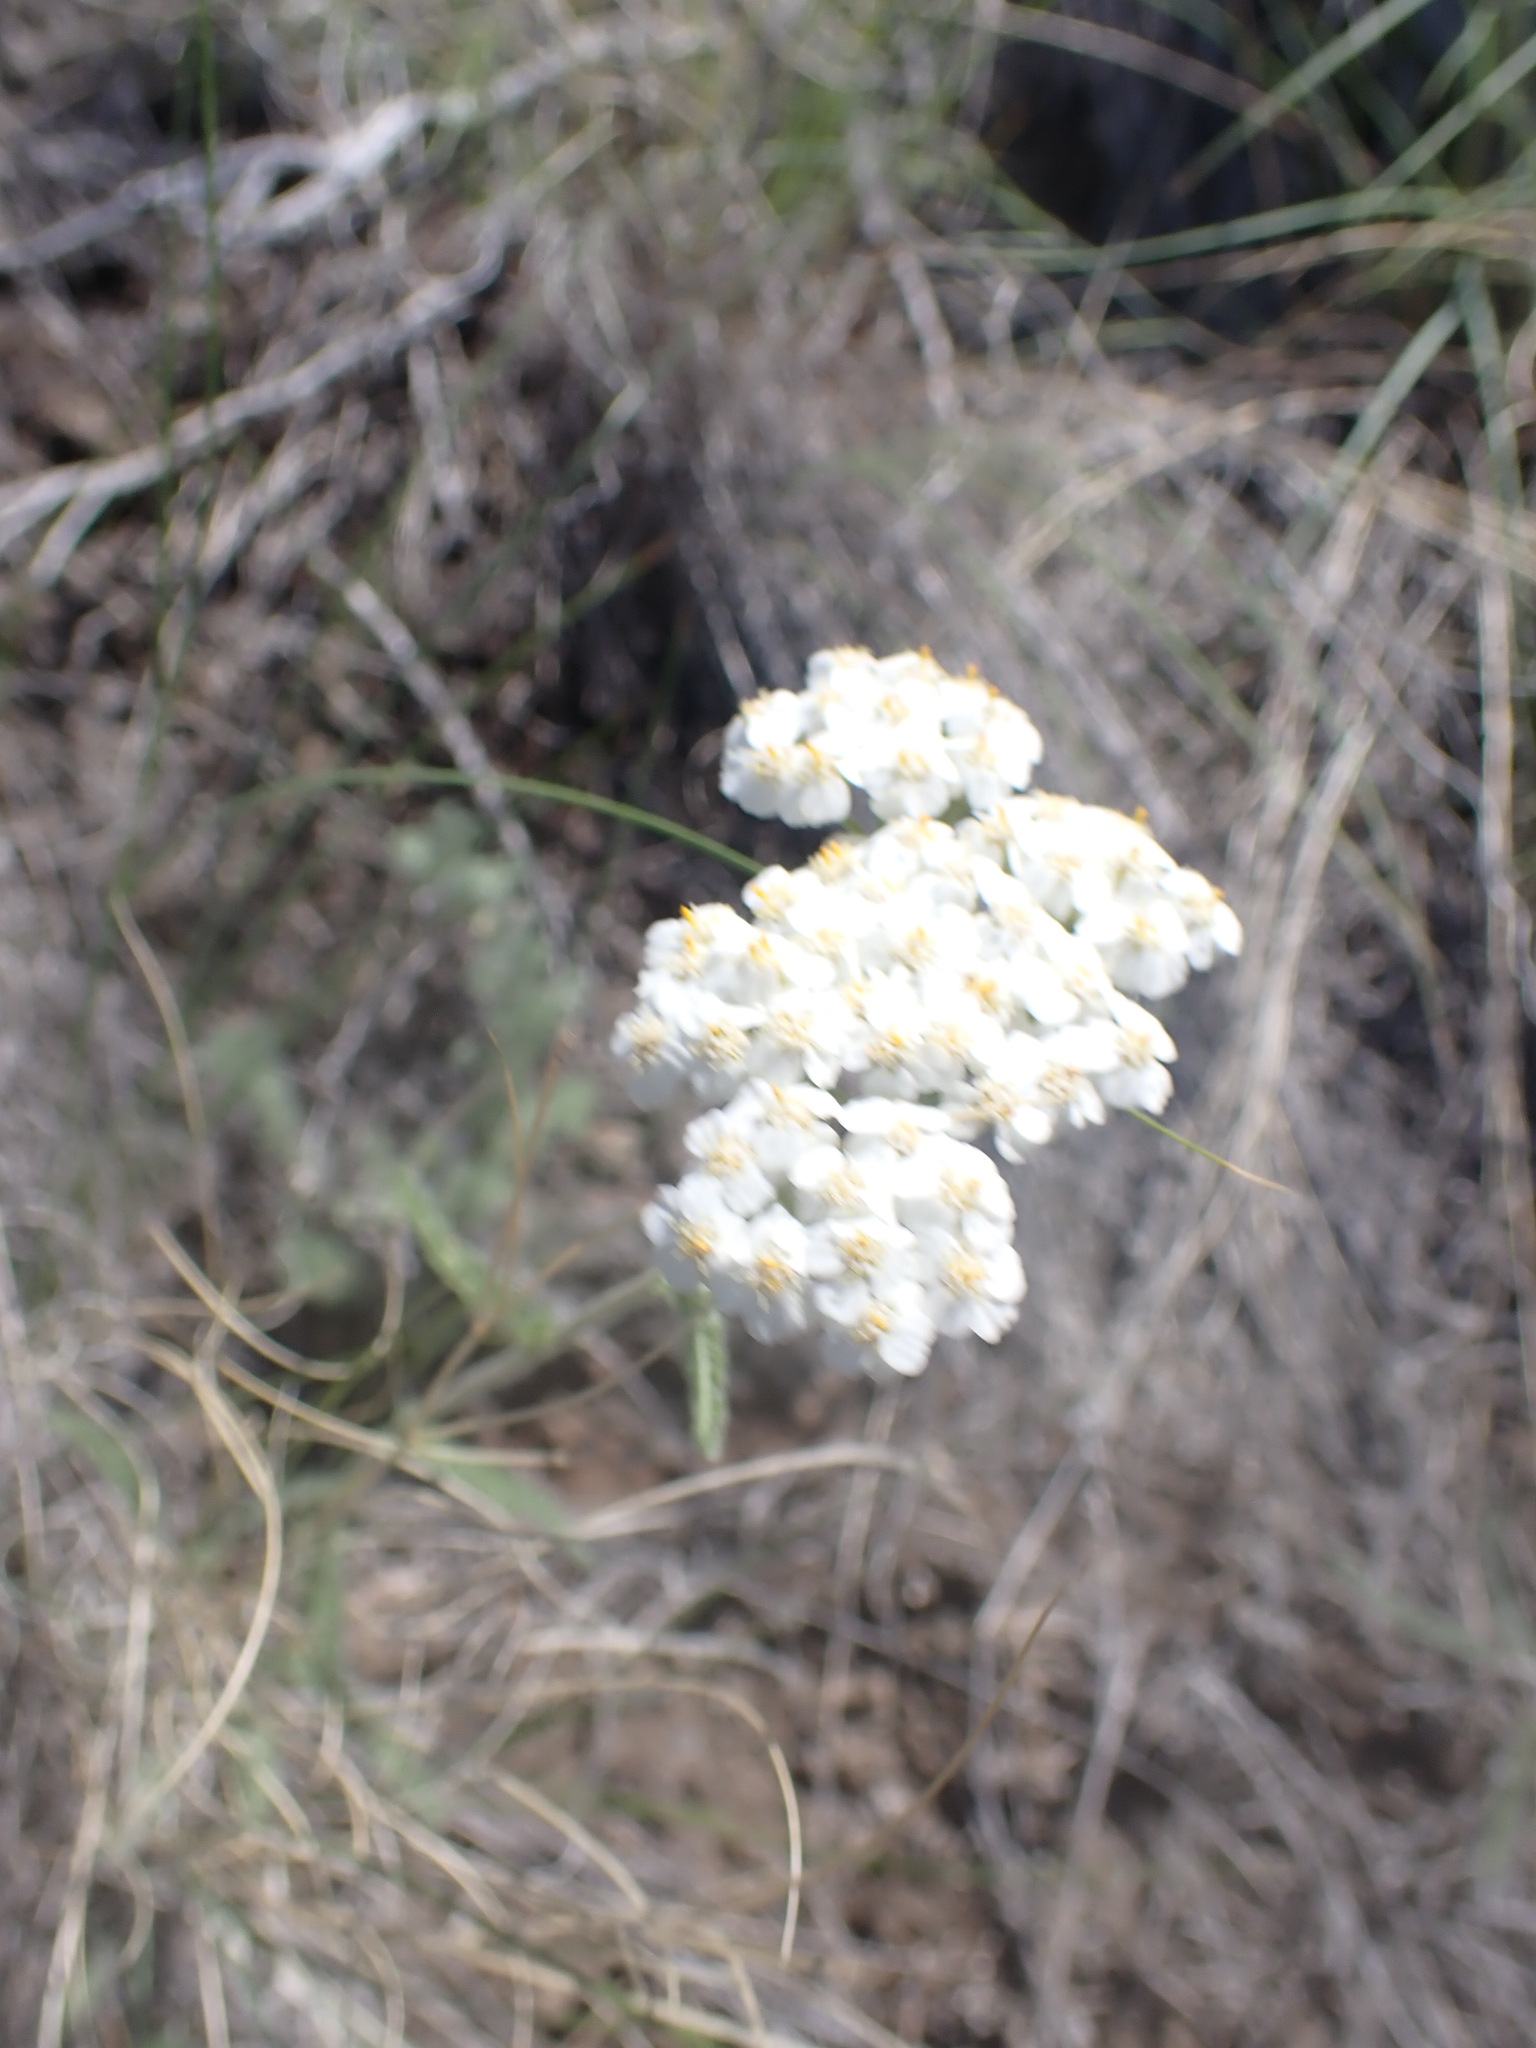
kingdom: Plantae
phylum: Tracheophyta
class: Magnoliopsida
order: Asterales
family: Asteraceae
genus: Achillea
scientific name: Achillea millefolium
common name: Yarrow
